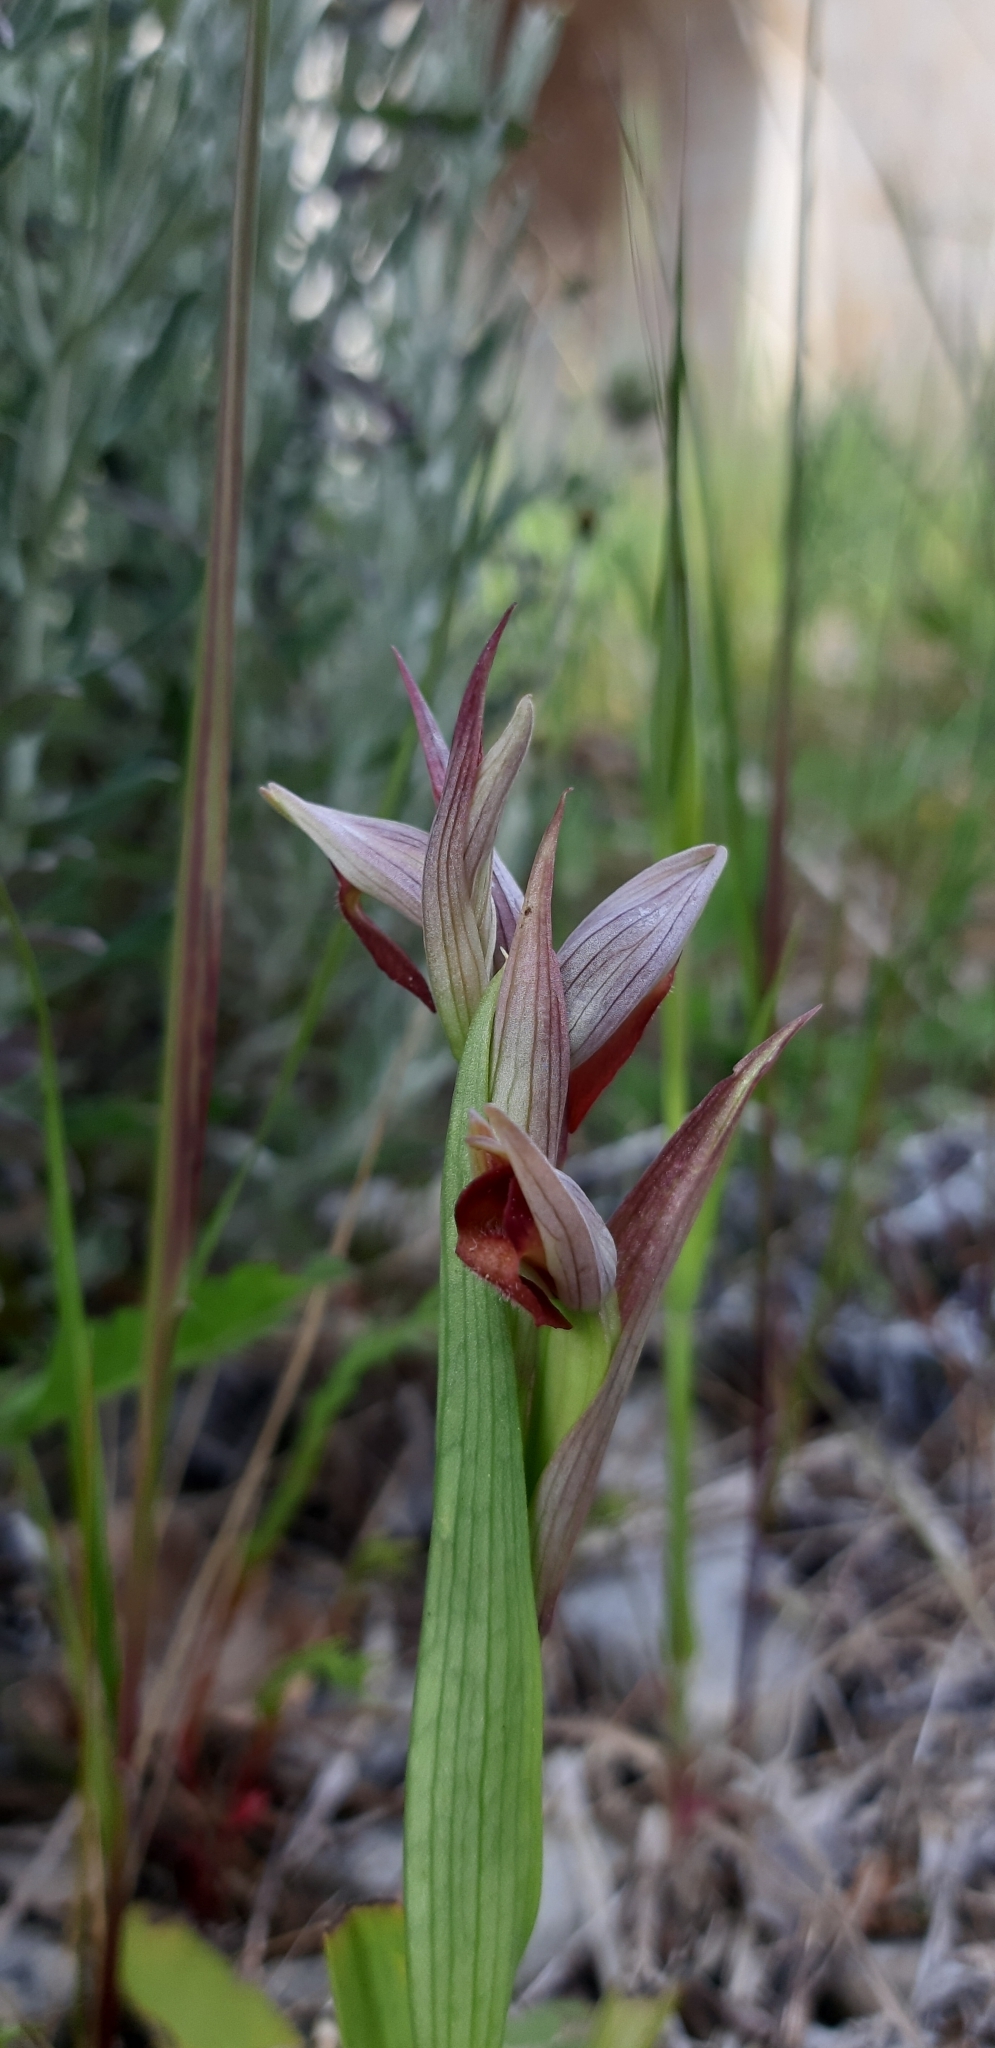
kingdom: Plantae
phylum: Tracheophyta
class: Liliopsida
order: Asparagales
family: Orchidaceae
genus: Serapias
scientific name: Serapias parviflora
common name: Small-flowered tongue-orchid
